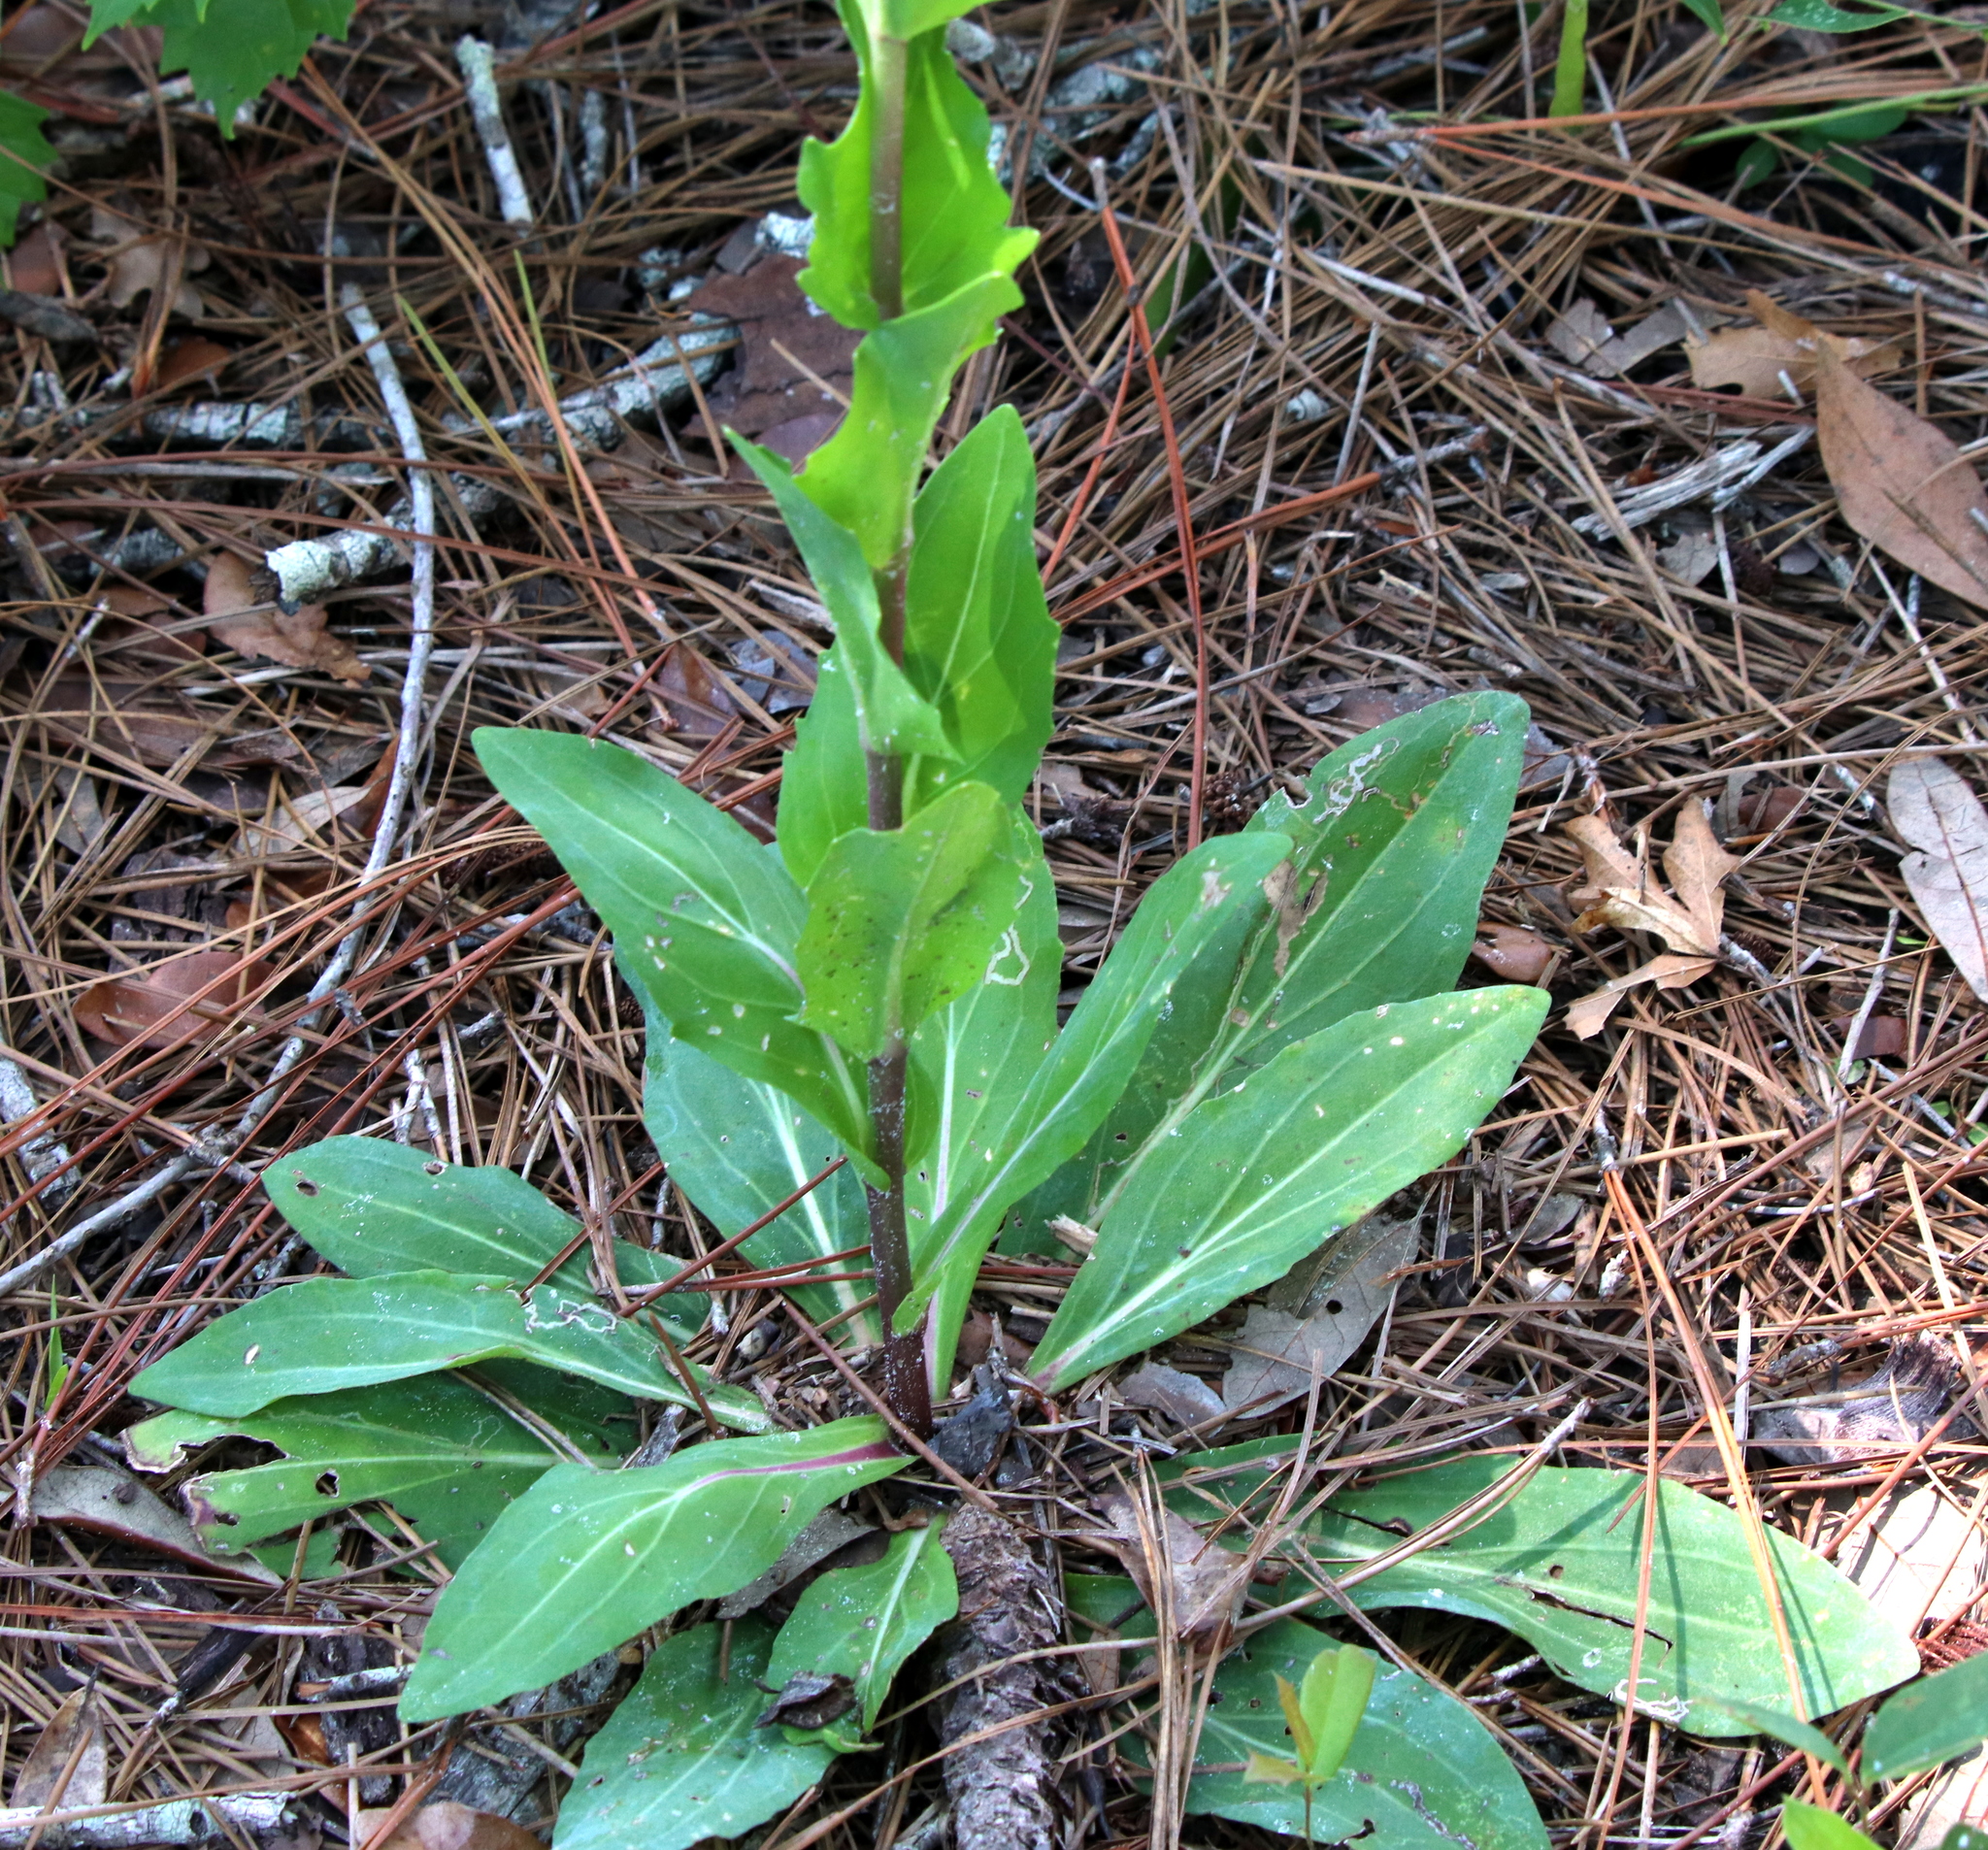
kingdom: Plantae
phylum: Tracheophyta
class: Magnoliopsida
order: Asterales
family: Asteraceae
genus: Carphephorus
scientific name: Carphephorus odoratissimus
